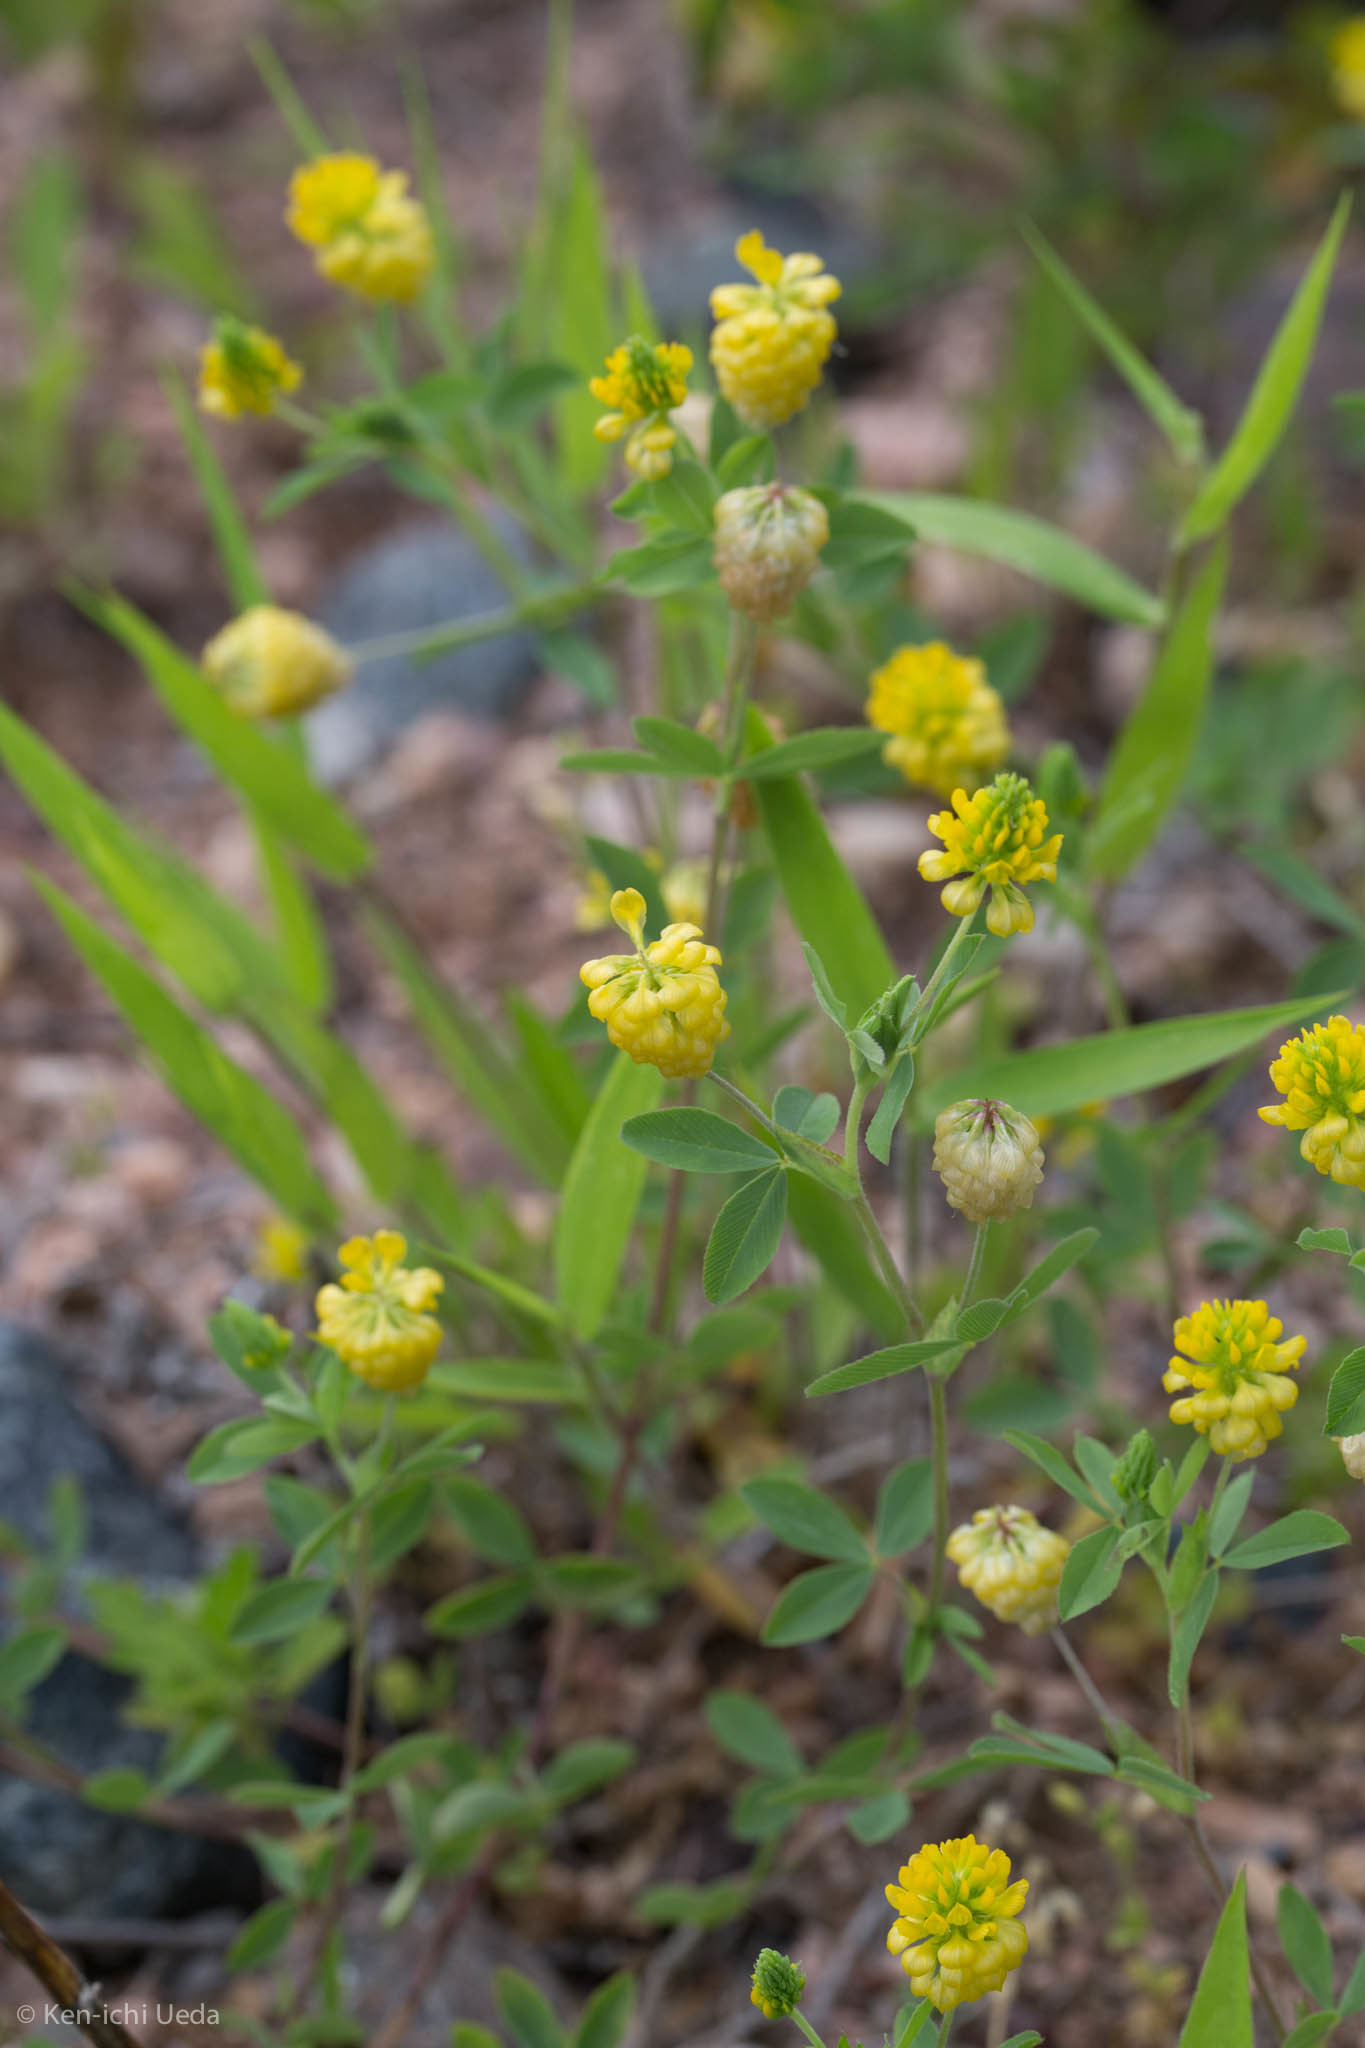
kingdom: Plantae
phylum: Tracheophyta
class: Magnoliopsida
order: Fabales
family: Fabaceae
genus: Trifolium
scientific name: Trifolium aureum
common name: Golden clover
